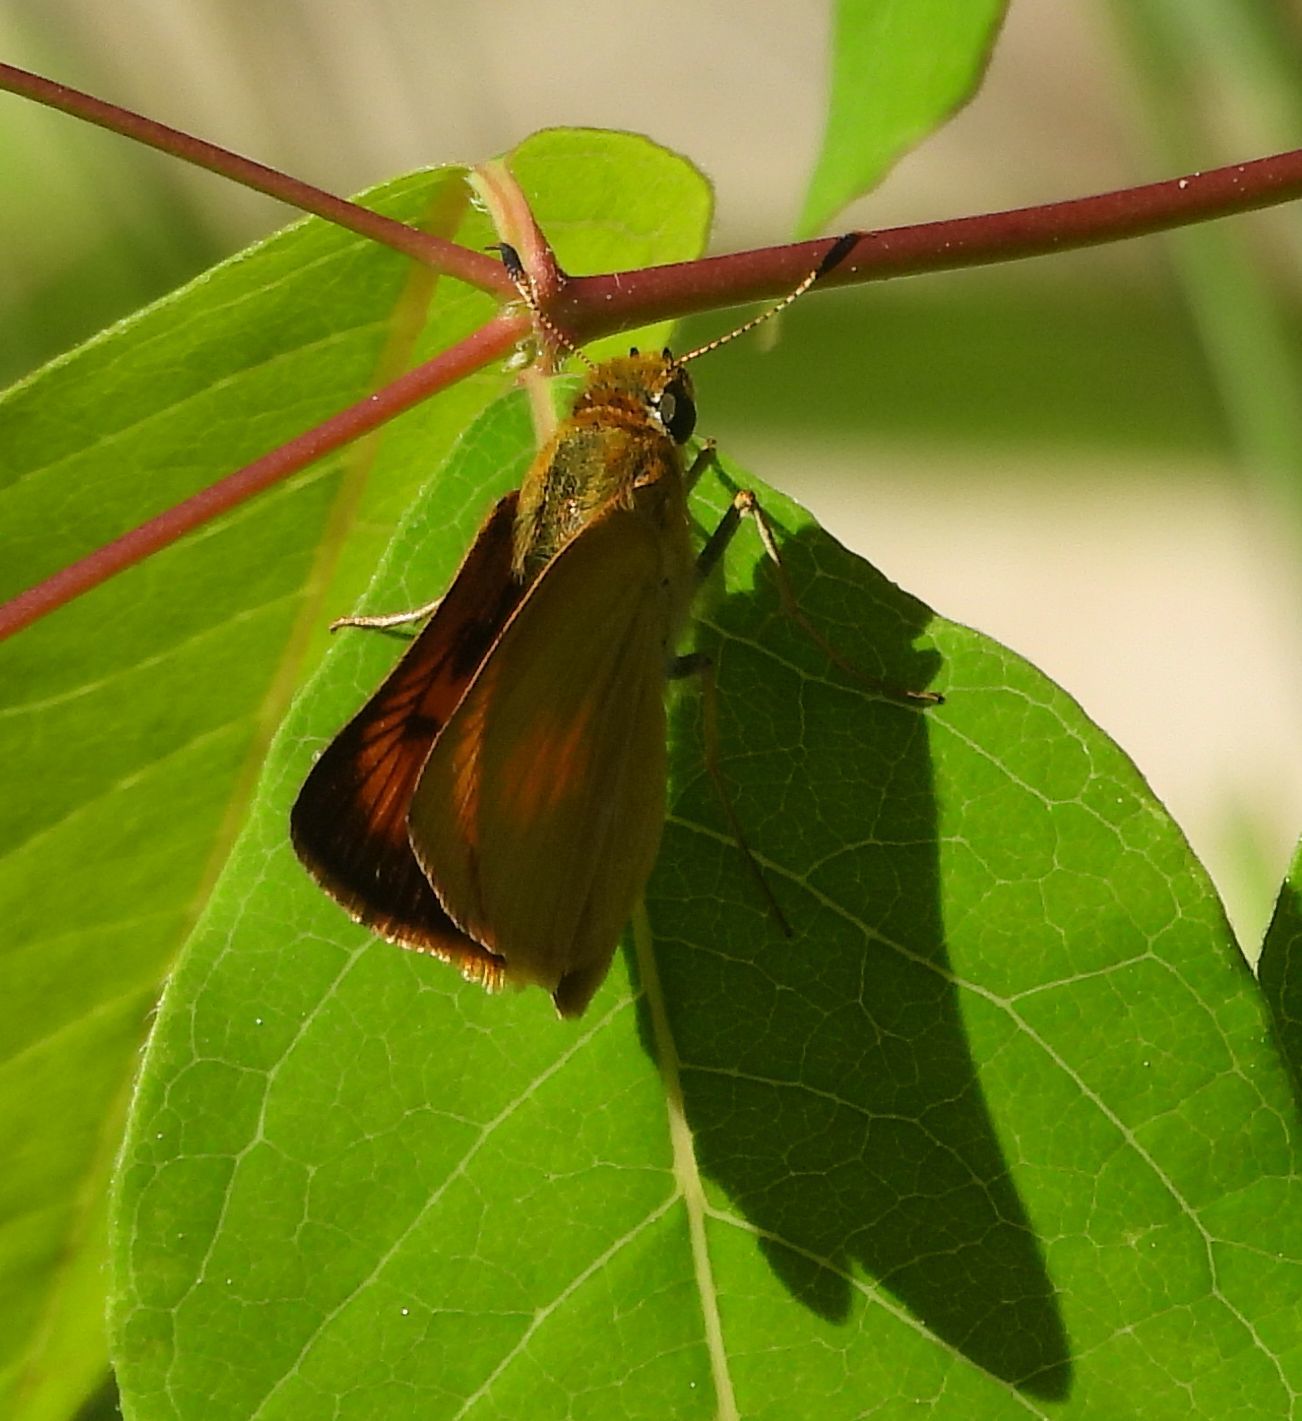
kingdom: Animalia
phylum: Arthropoda
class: Insecta
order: Lepidoptera
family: Hesperiidae
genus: Atrytone
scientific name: Atrytone delaware
